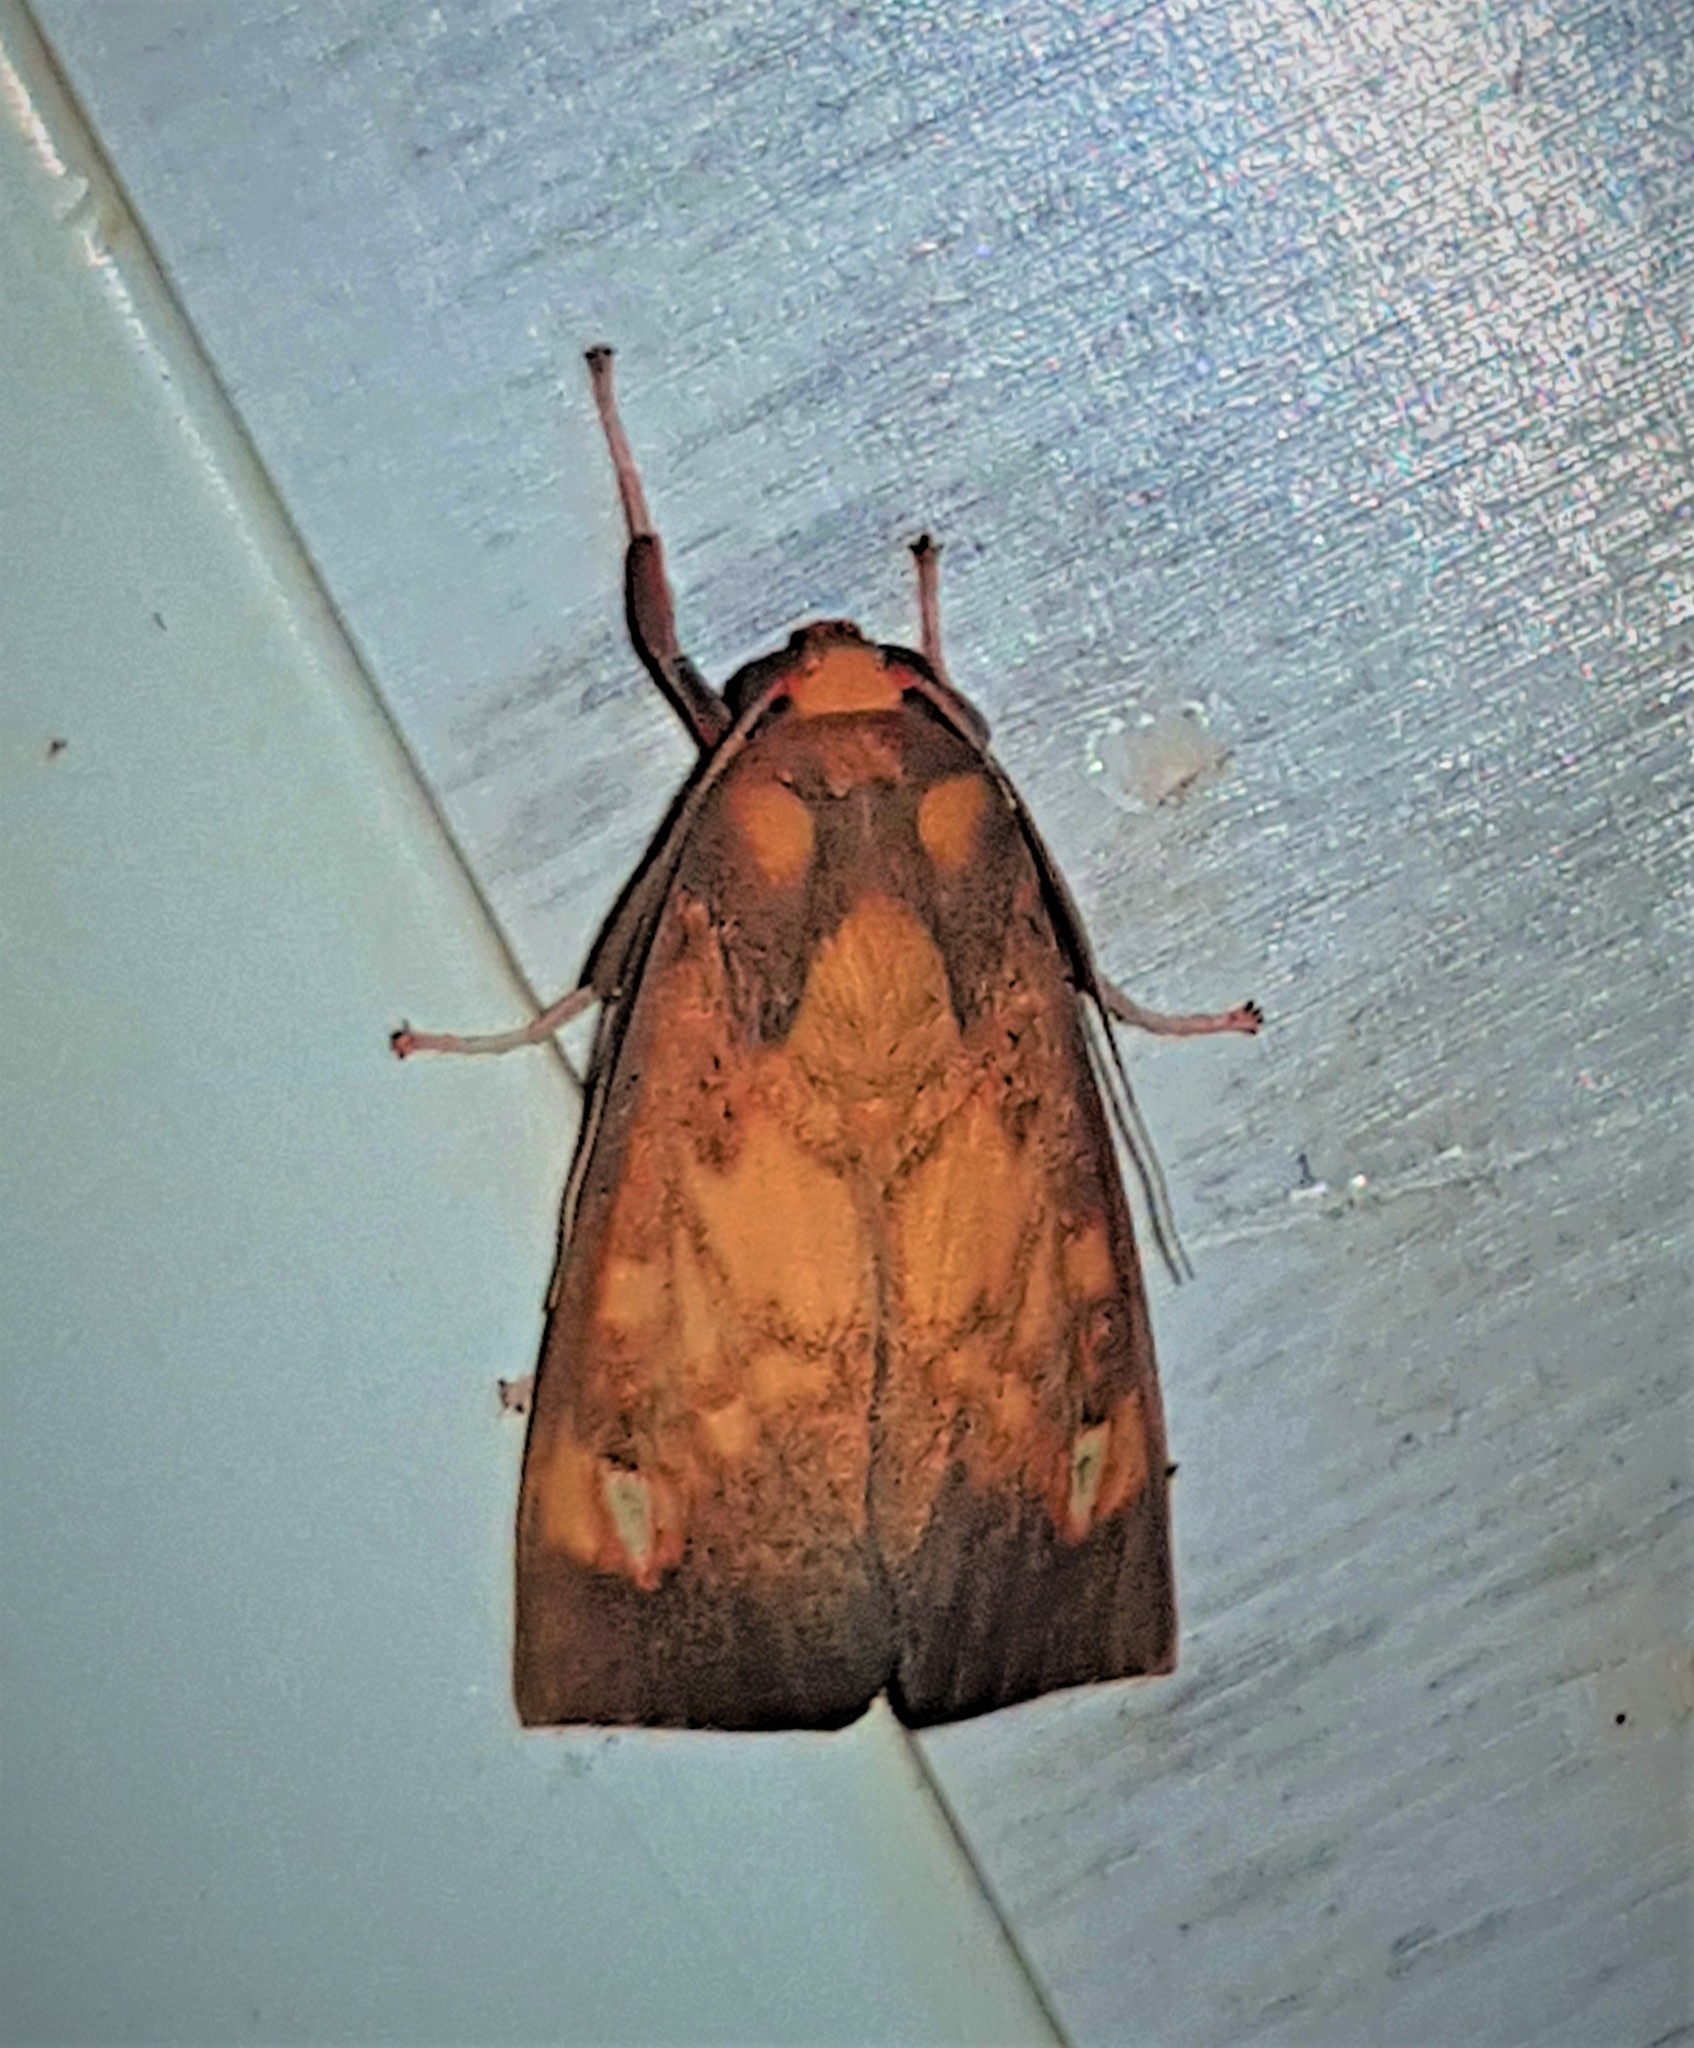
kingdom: Animalia
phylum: Arthropoda
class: Insecta
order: Lepidoptera
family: Erebidae
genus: Melese
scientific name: Melese dorothea
